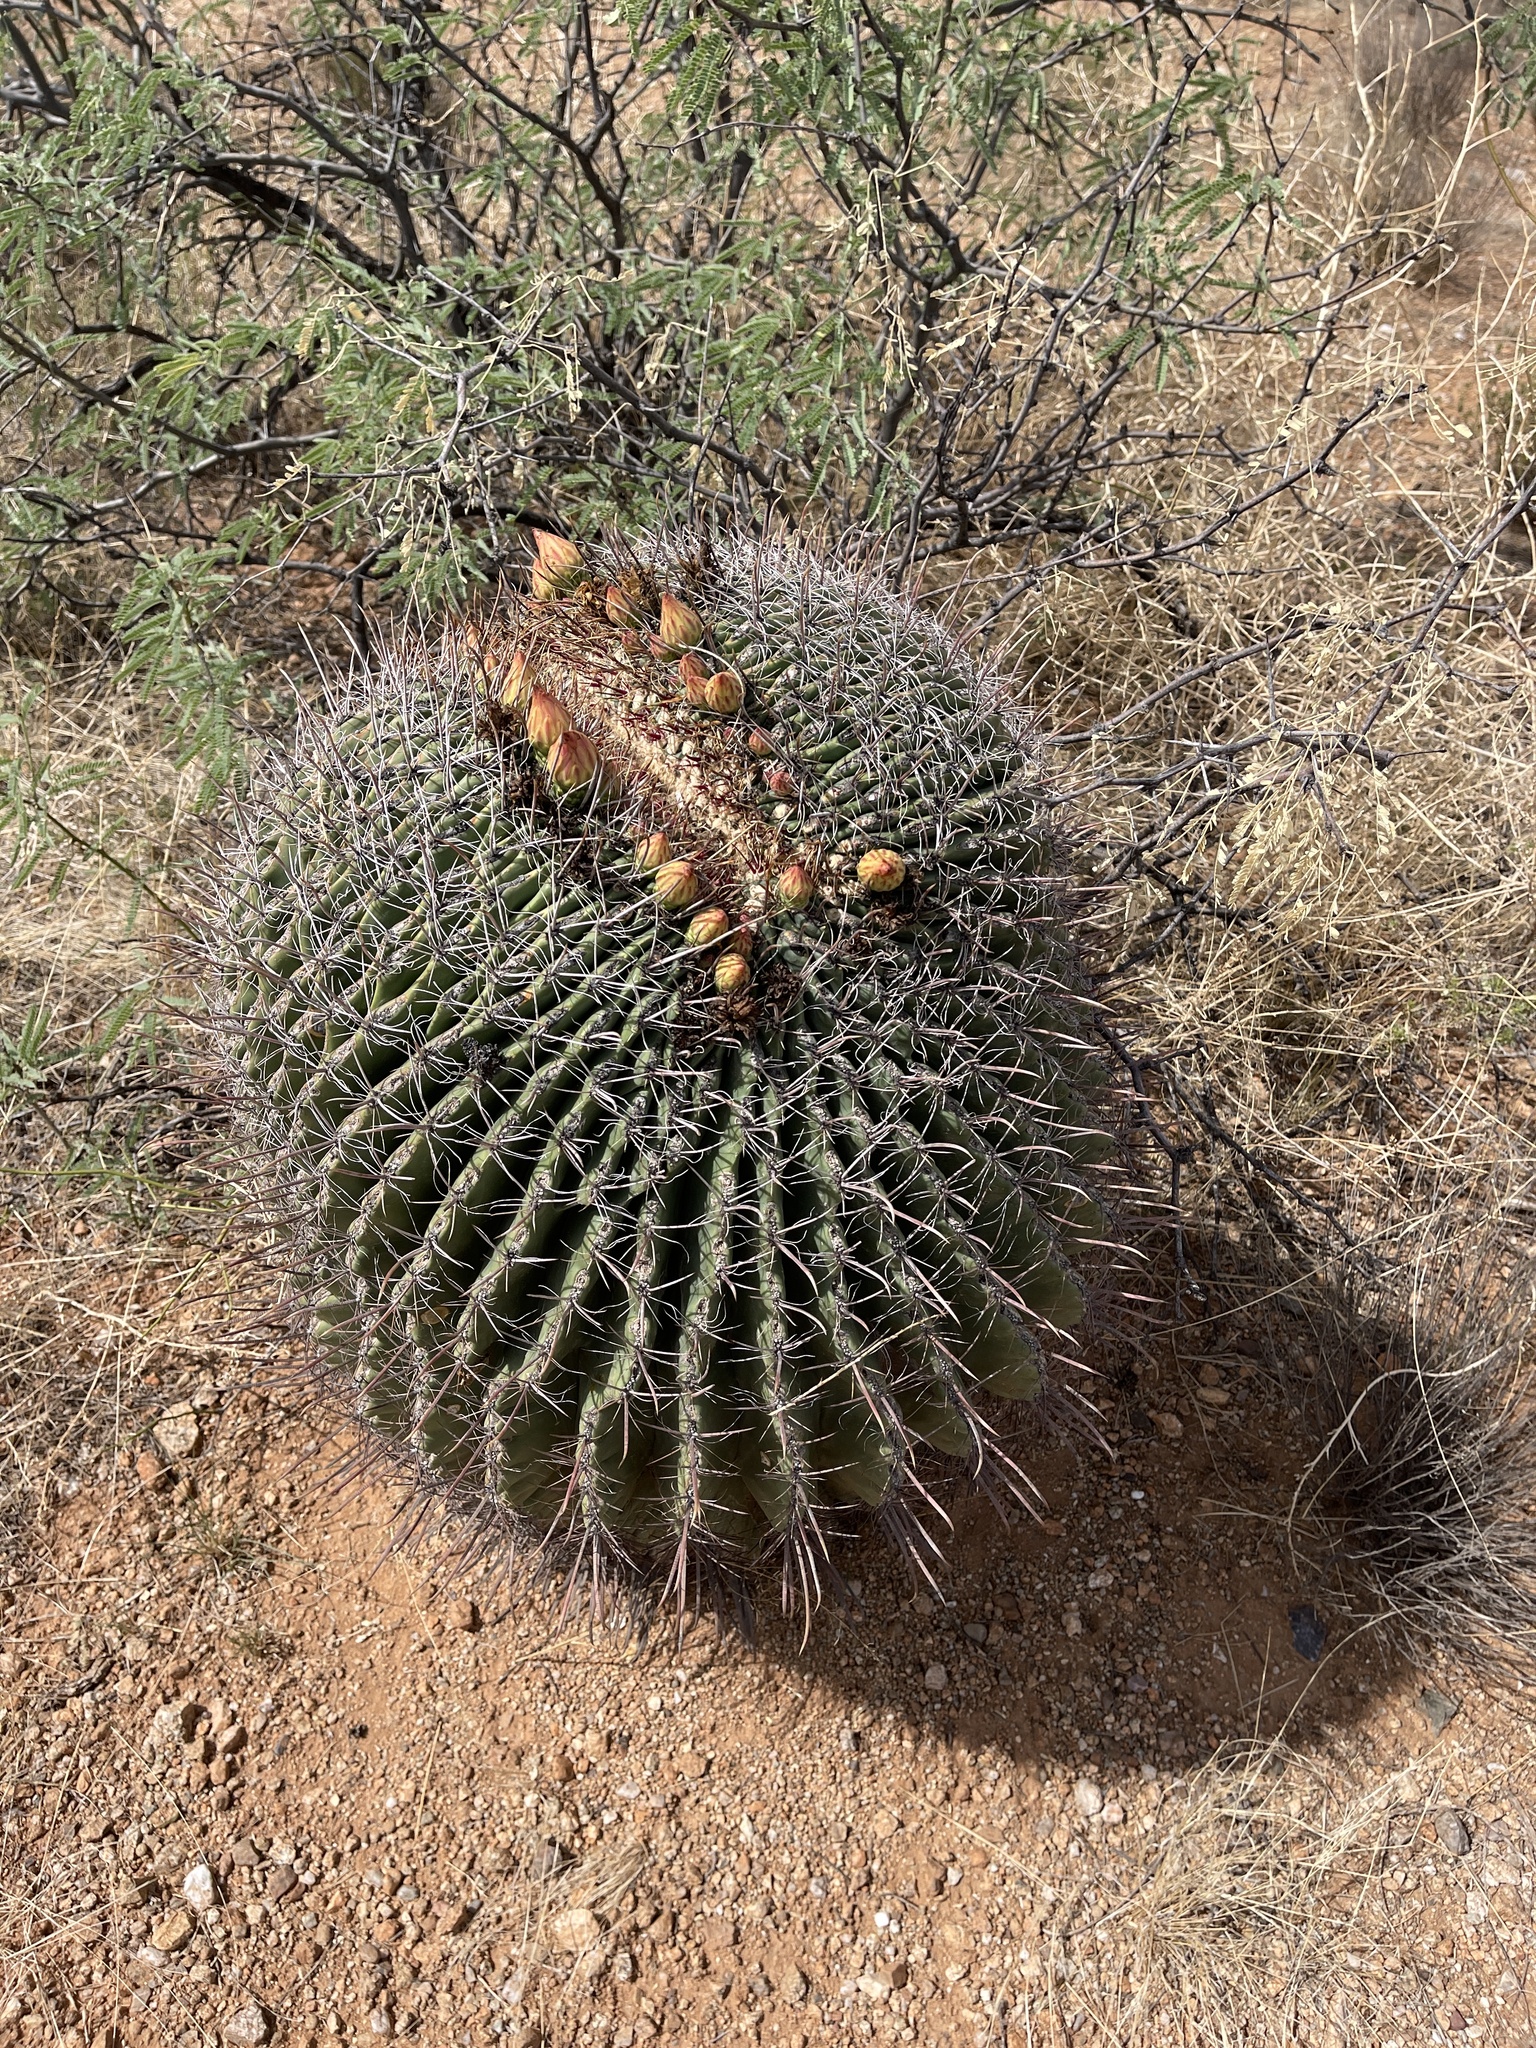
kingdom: Plantae
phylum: Tracheophyta
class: Magnoliopsida
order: Caryophyllales
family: Cactaceae
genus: Ferocactus
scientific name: Ferocactus wislizeni
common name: Candy barrel cactus
